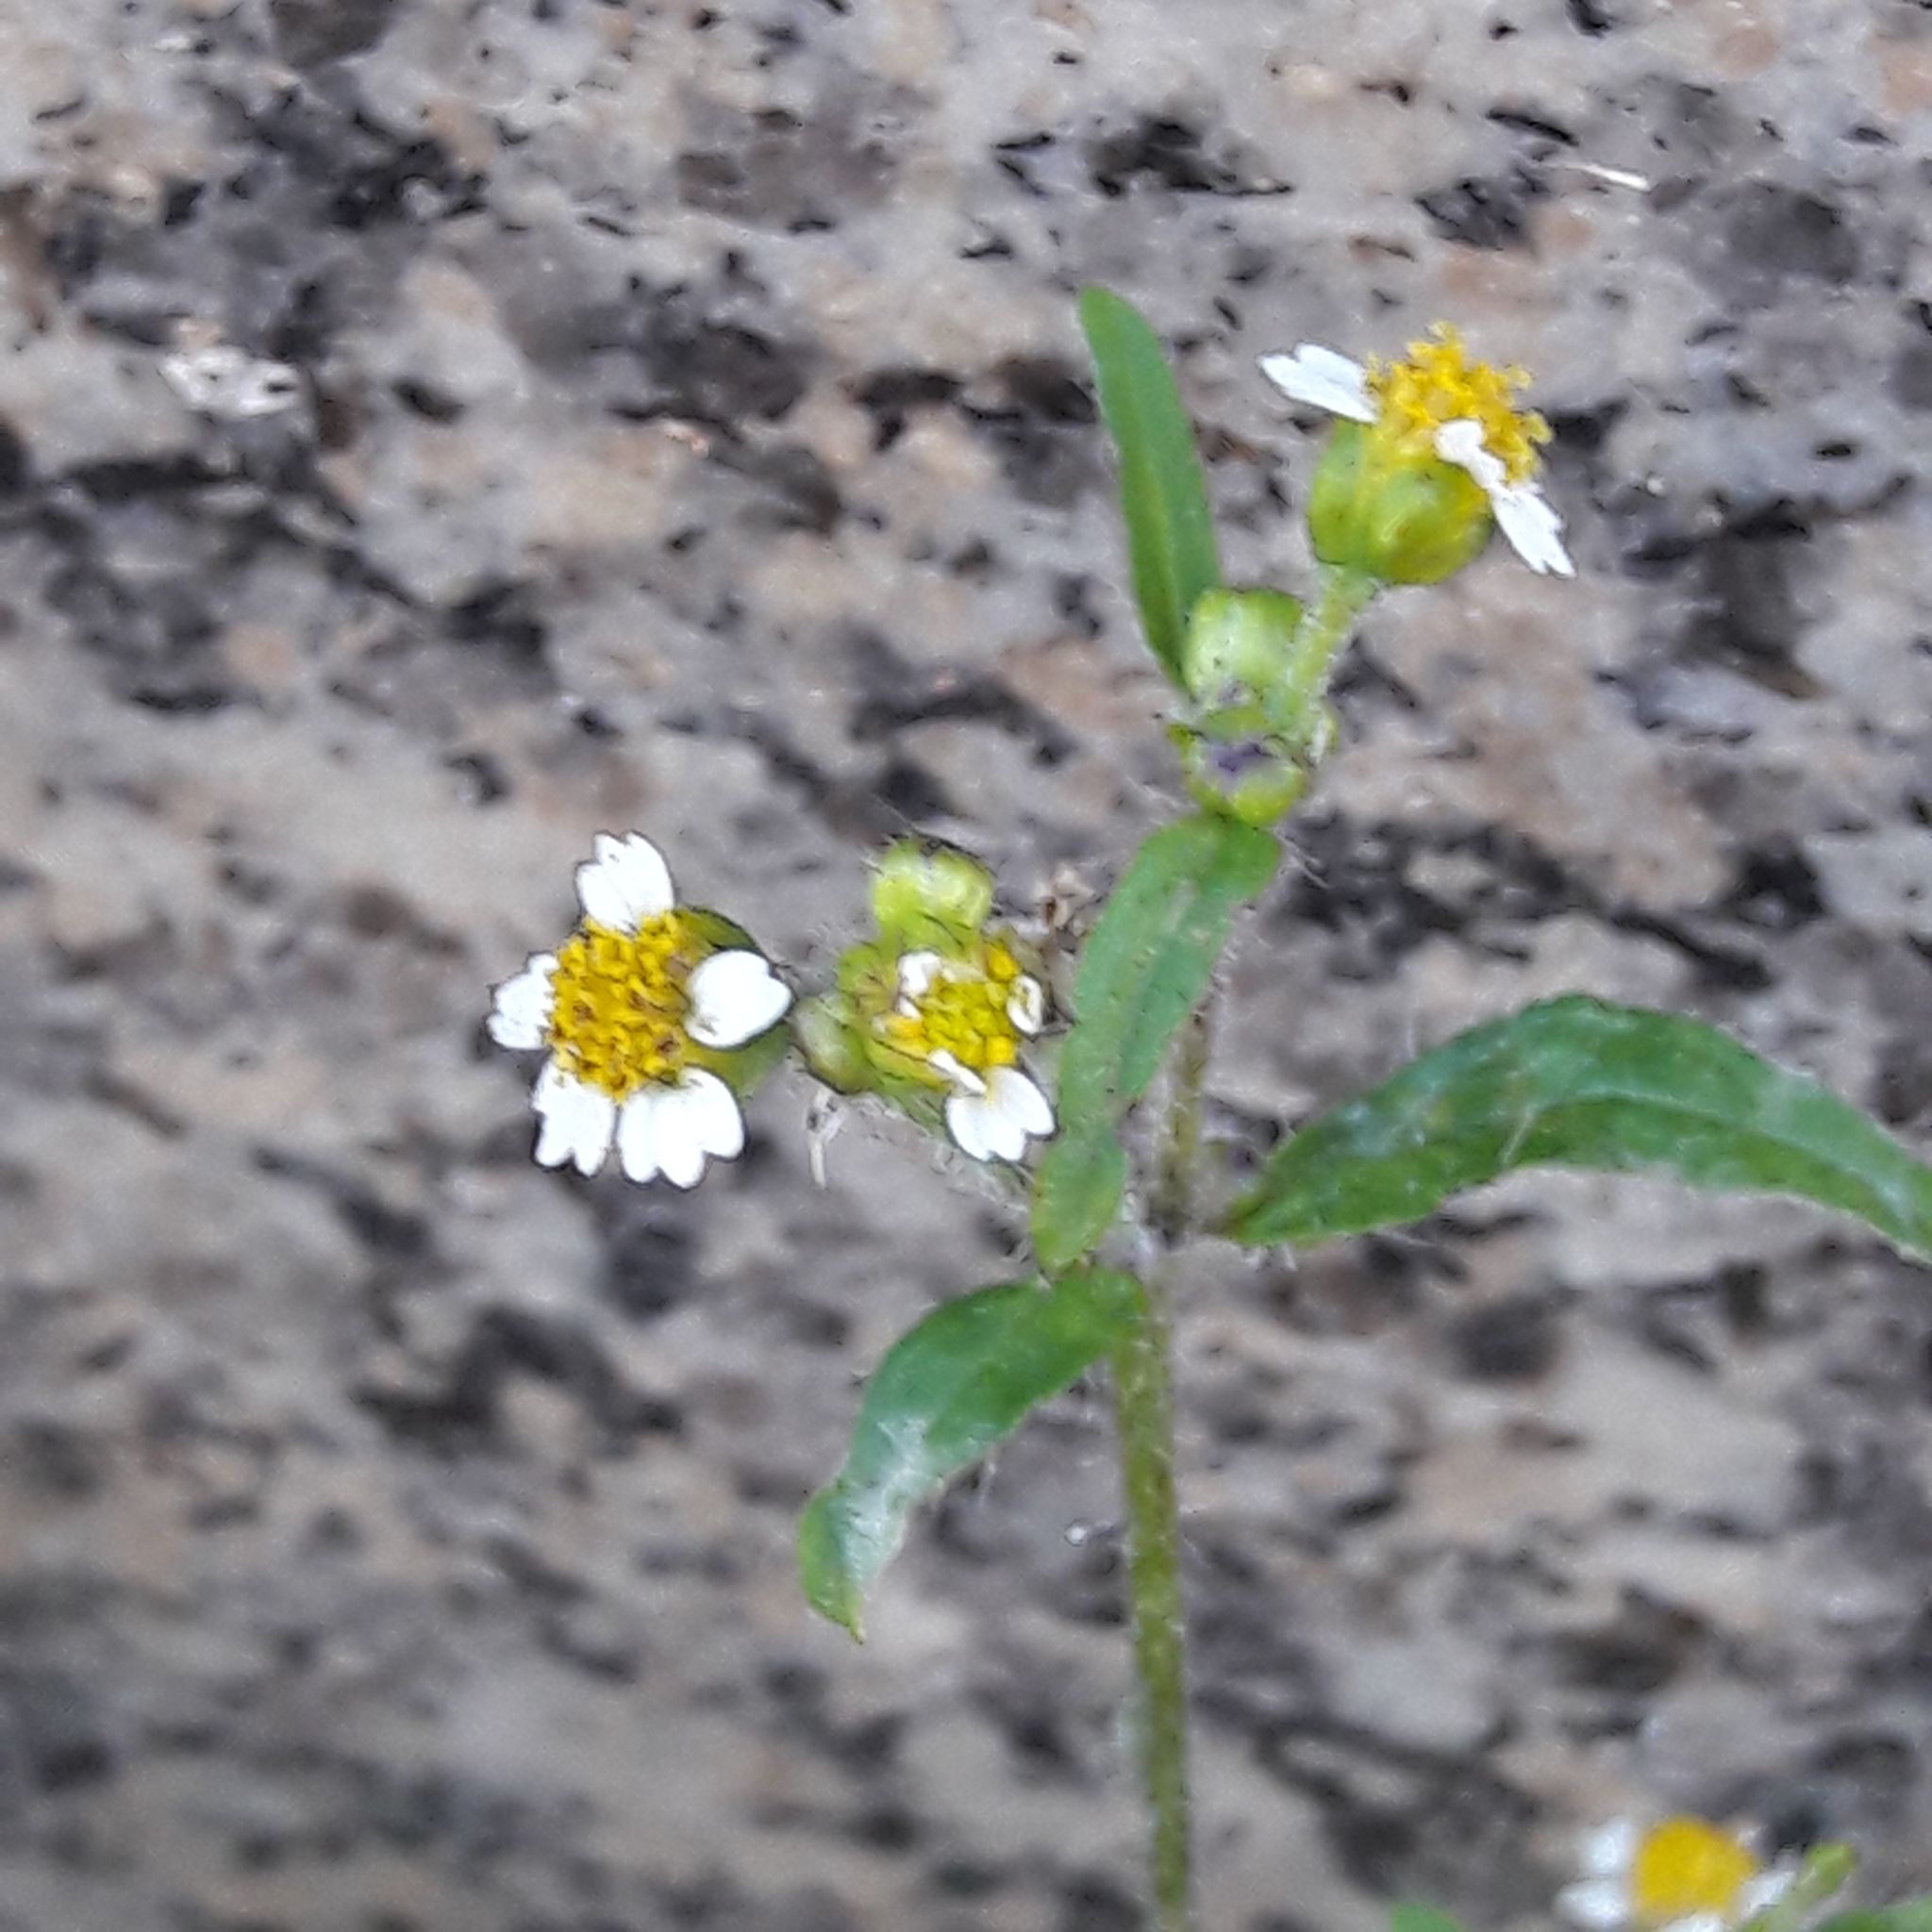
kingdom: Plantae
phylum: Tracheophyta
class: Magnoliopsida
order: Asterales
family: Asteraceae
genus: Galinsoga
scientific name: Galinsoga quadriradiata
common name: Shaggy soldier
